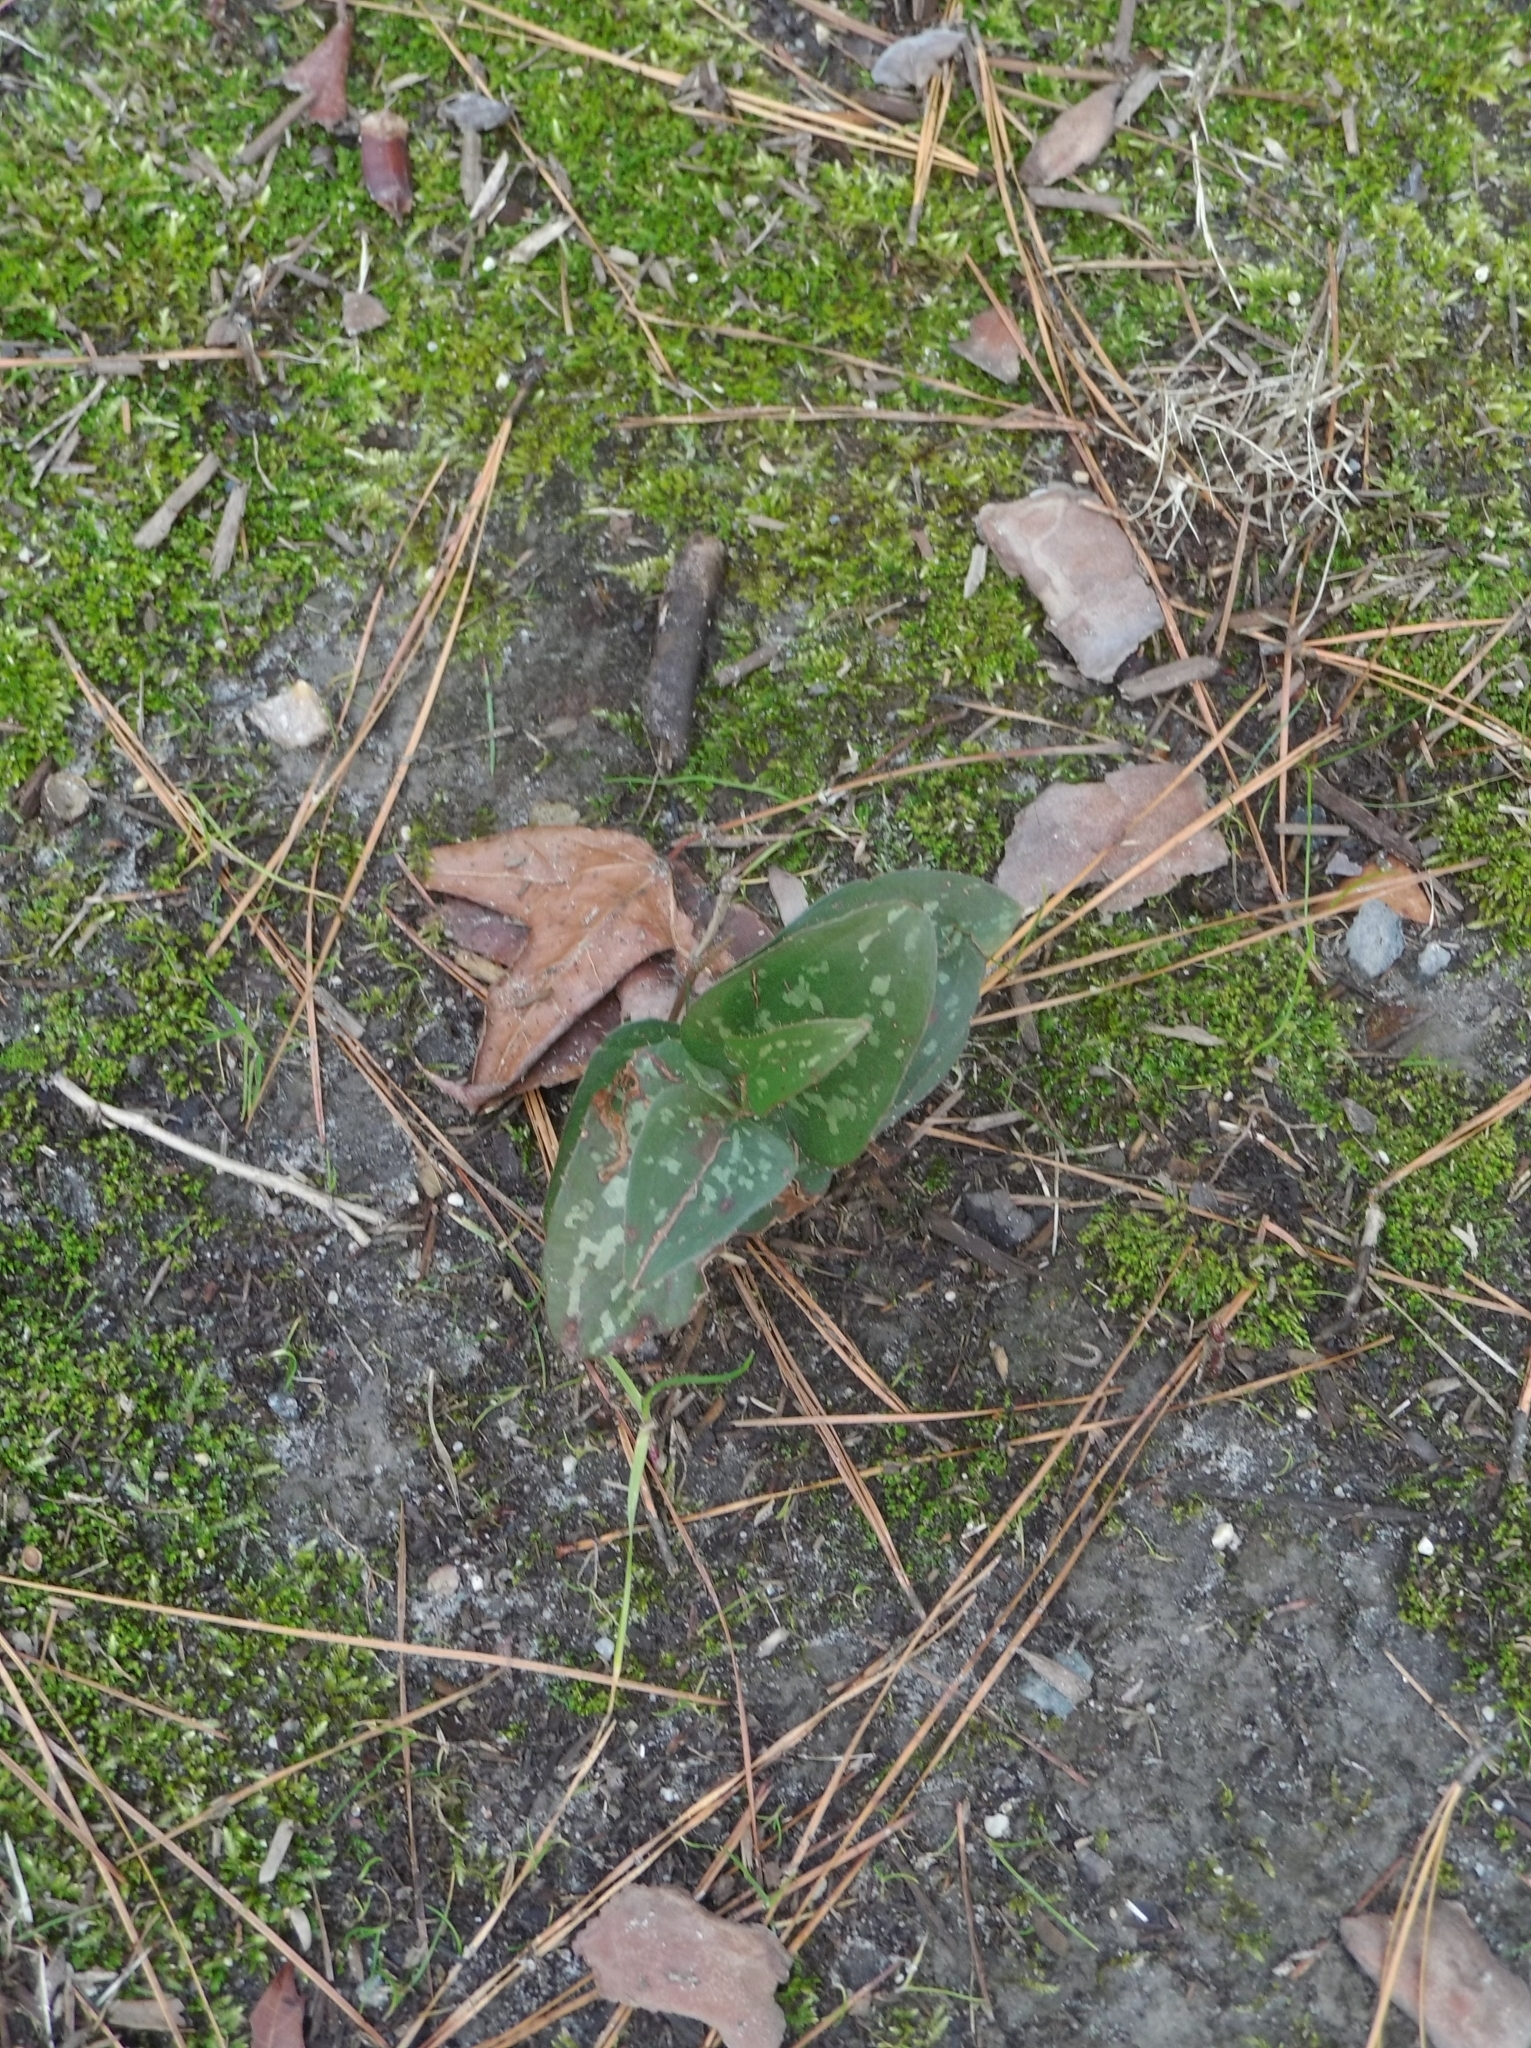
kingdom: Plantae
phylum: Tracheophyta
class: Liliopsida
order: Liliales
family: Smilacaceae
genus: Smilax
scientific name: Smilax bona-nox
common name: Catbrier
